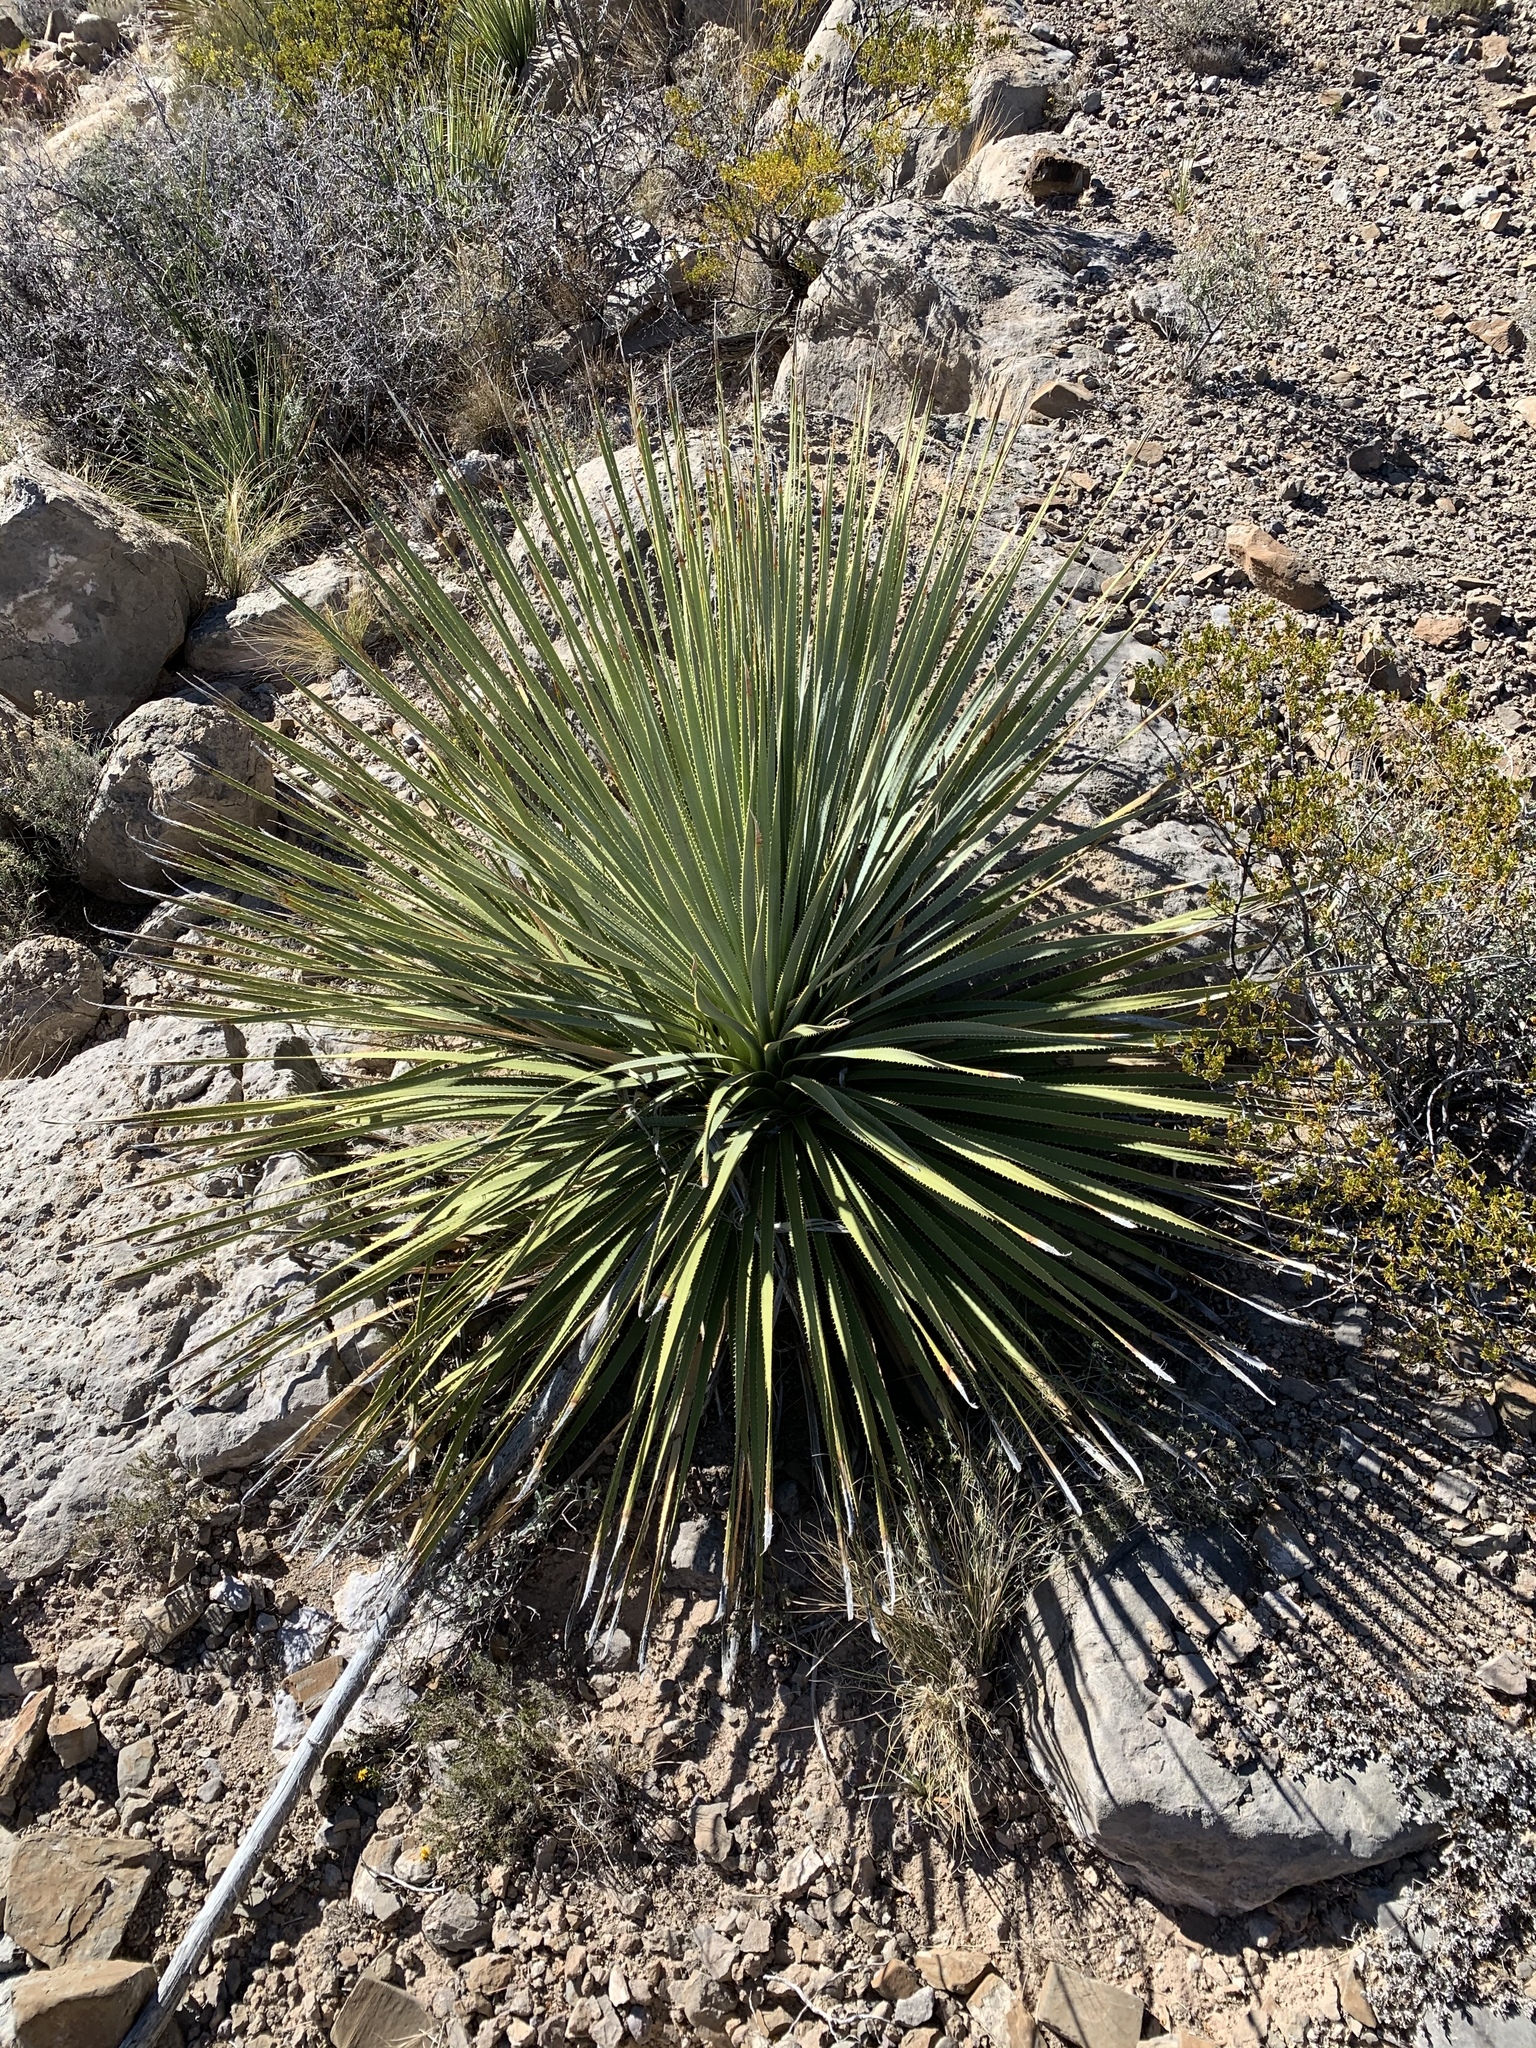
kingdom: Plantae
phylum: Tracheophyta
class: Liliopsida
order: Asparagales
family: Asparagaceae
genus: Dasylirion
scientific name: Dasylirion wheeleri
